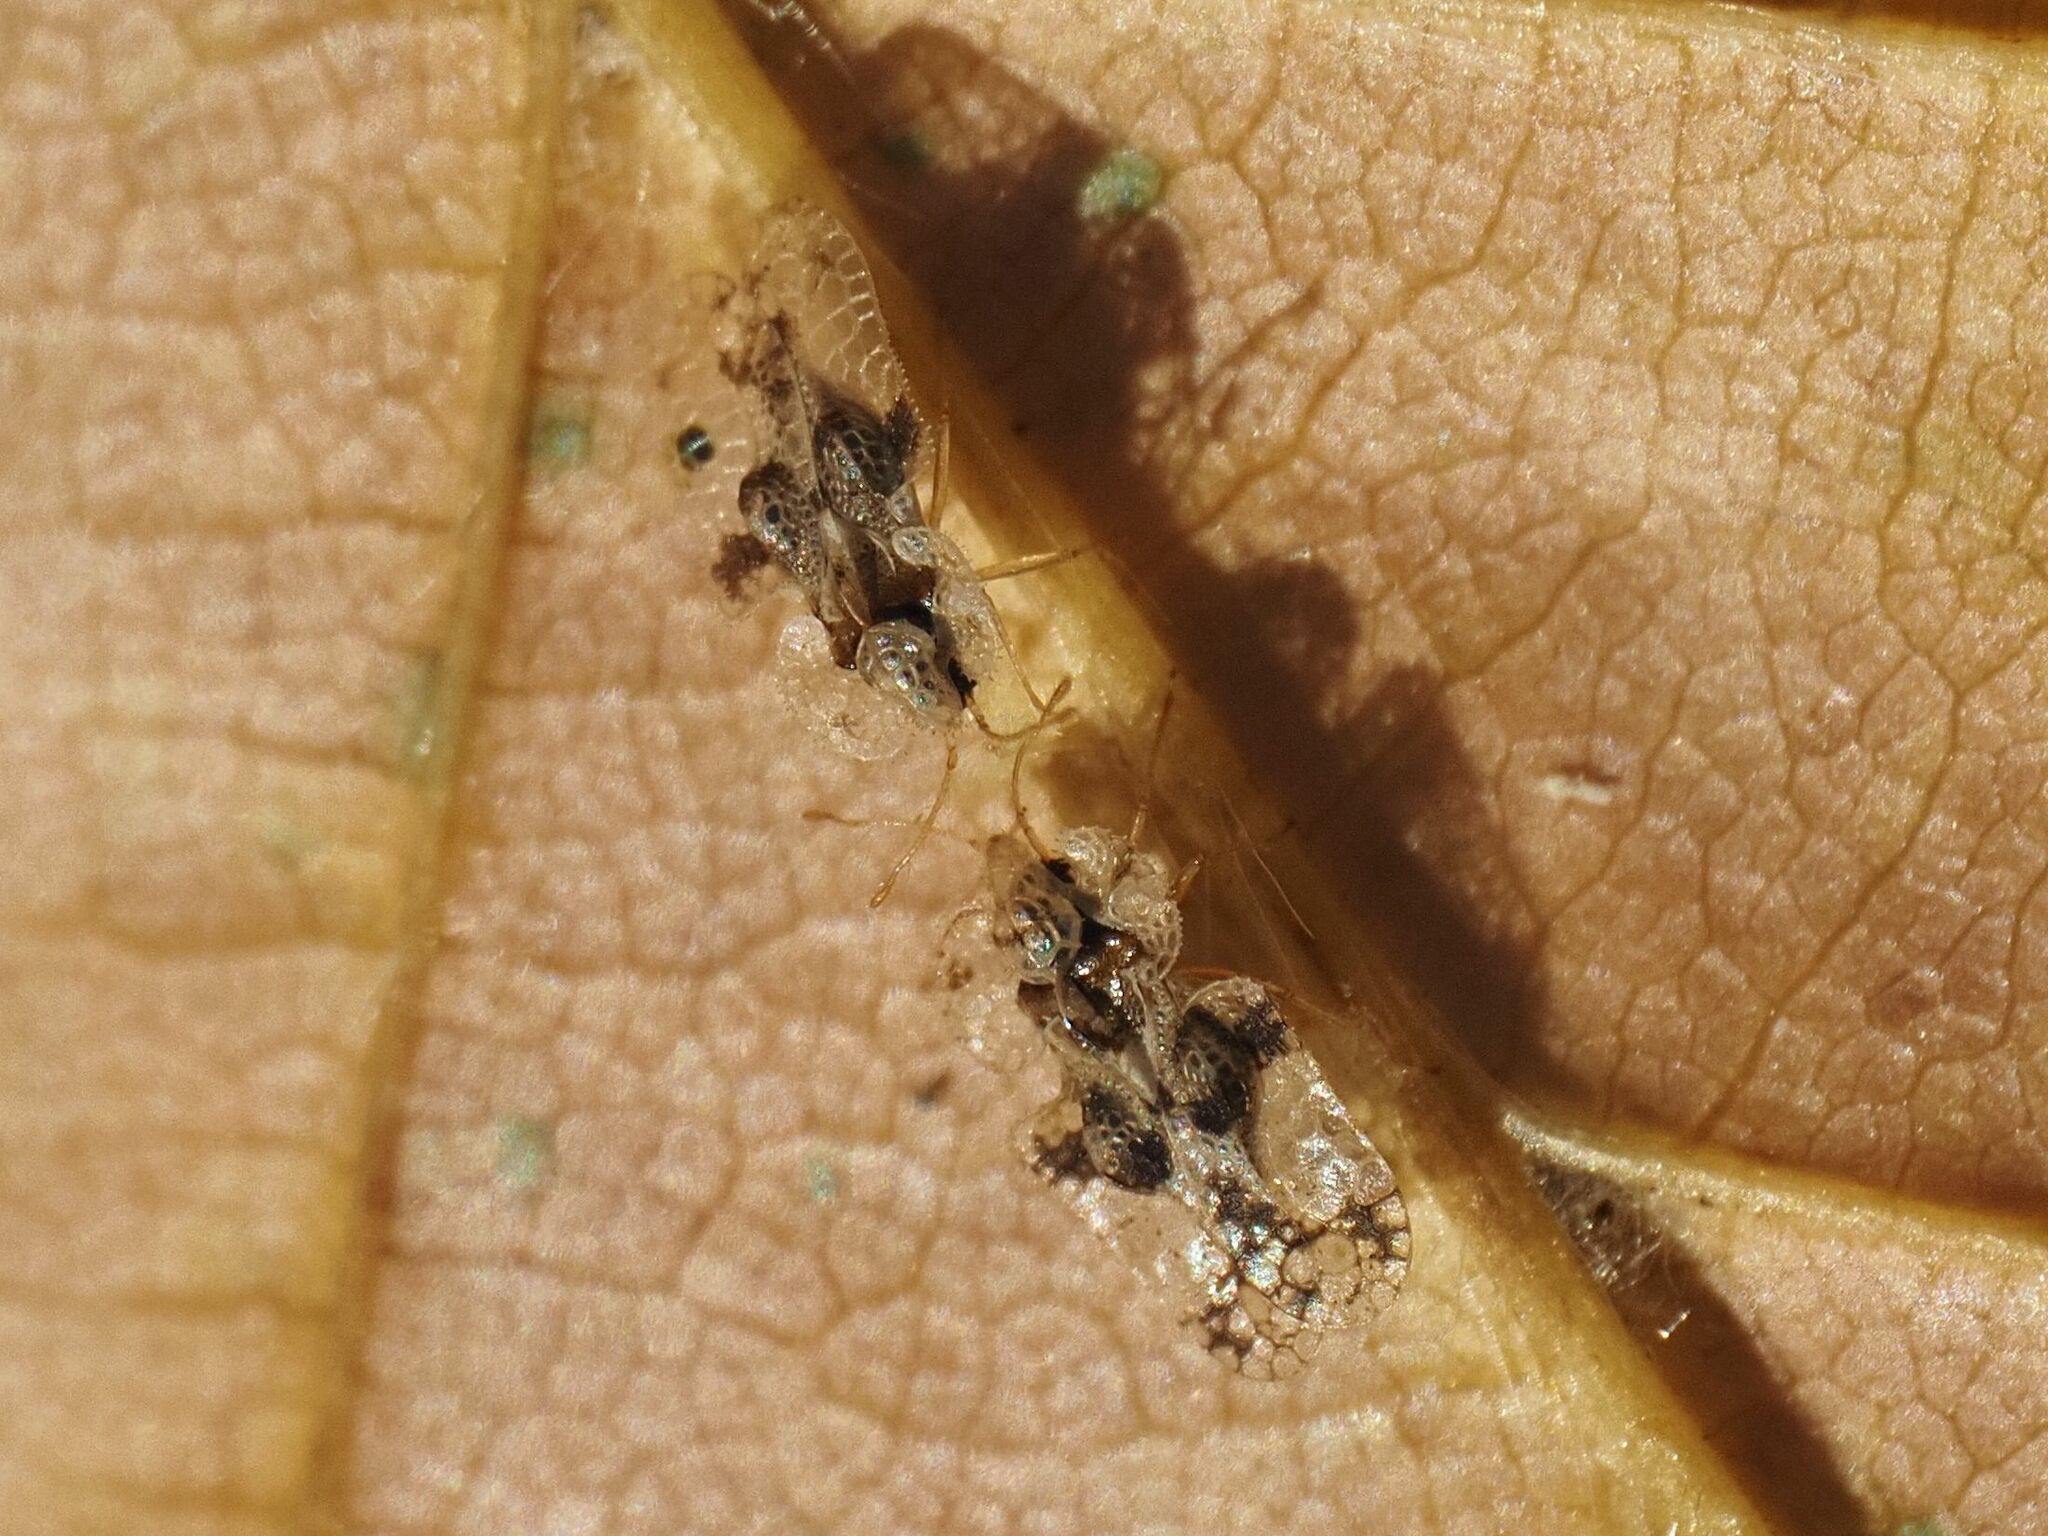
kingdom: Animalia
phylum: Arthropoda
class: Insecta
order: Hemiptera
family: Tingidae
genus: Corythucha
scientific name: Corythucha arcuata
